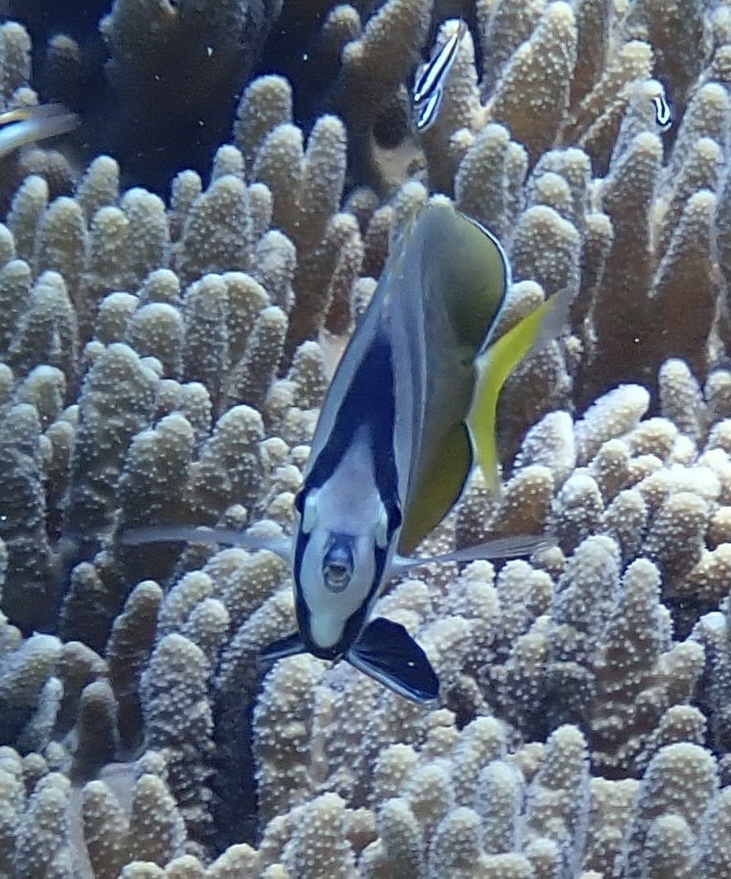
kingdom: Animalia
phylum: Chordata
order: Perciformes
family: Chaetodontidae
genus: Chaetodon
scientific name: Chaetodon kleinii
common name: Klein's butterflyfish
